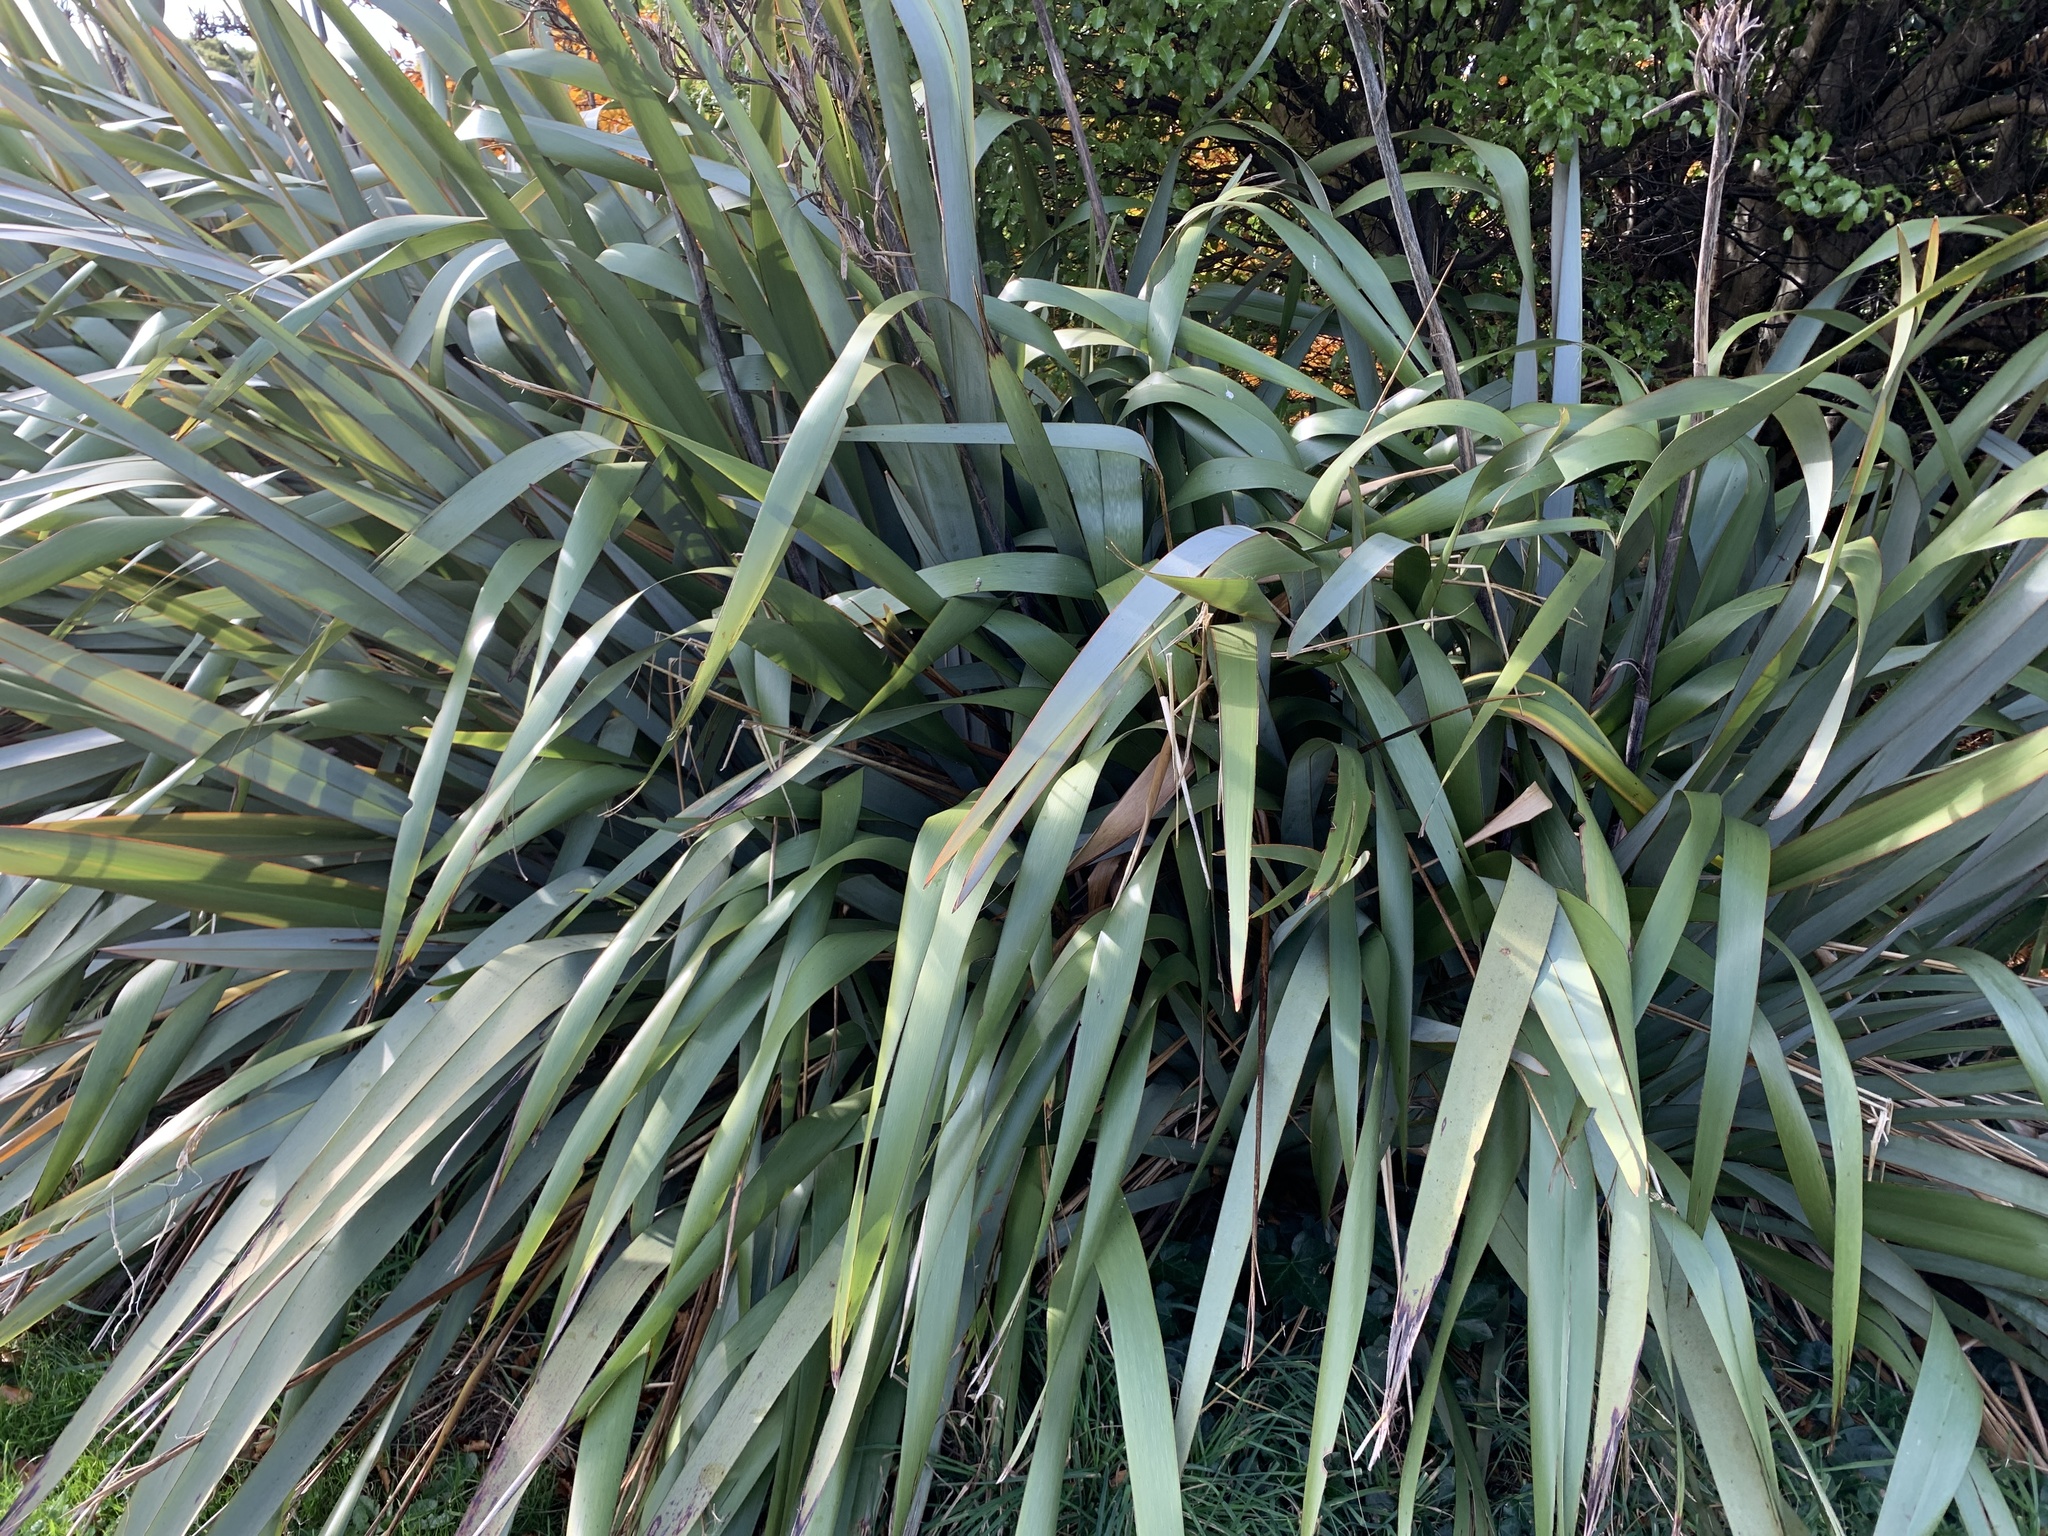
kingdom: Plantae
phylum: Tracheophyta
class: Liliopsida
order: Asparagales
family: Asphodelaceae
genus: Phormium
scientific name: Phormium tenax
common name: New zealand flax
